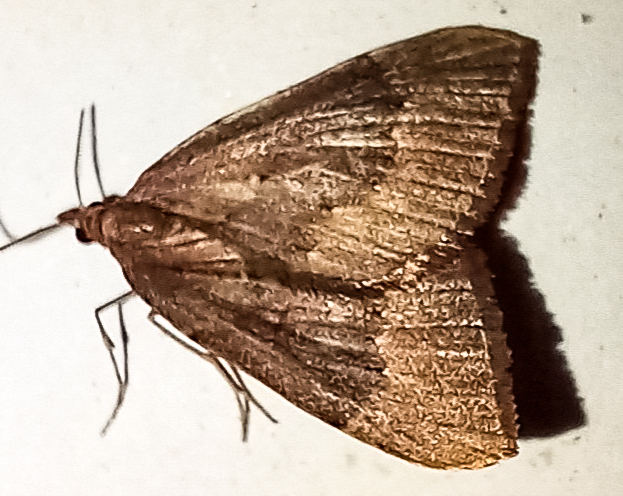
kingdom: Animalia
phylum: Arthropoda
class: Insecta
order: Lepidoptera
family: Geometridae
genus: Xanthorhoe
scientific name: Xanthorhoe occulta
